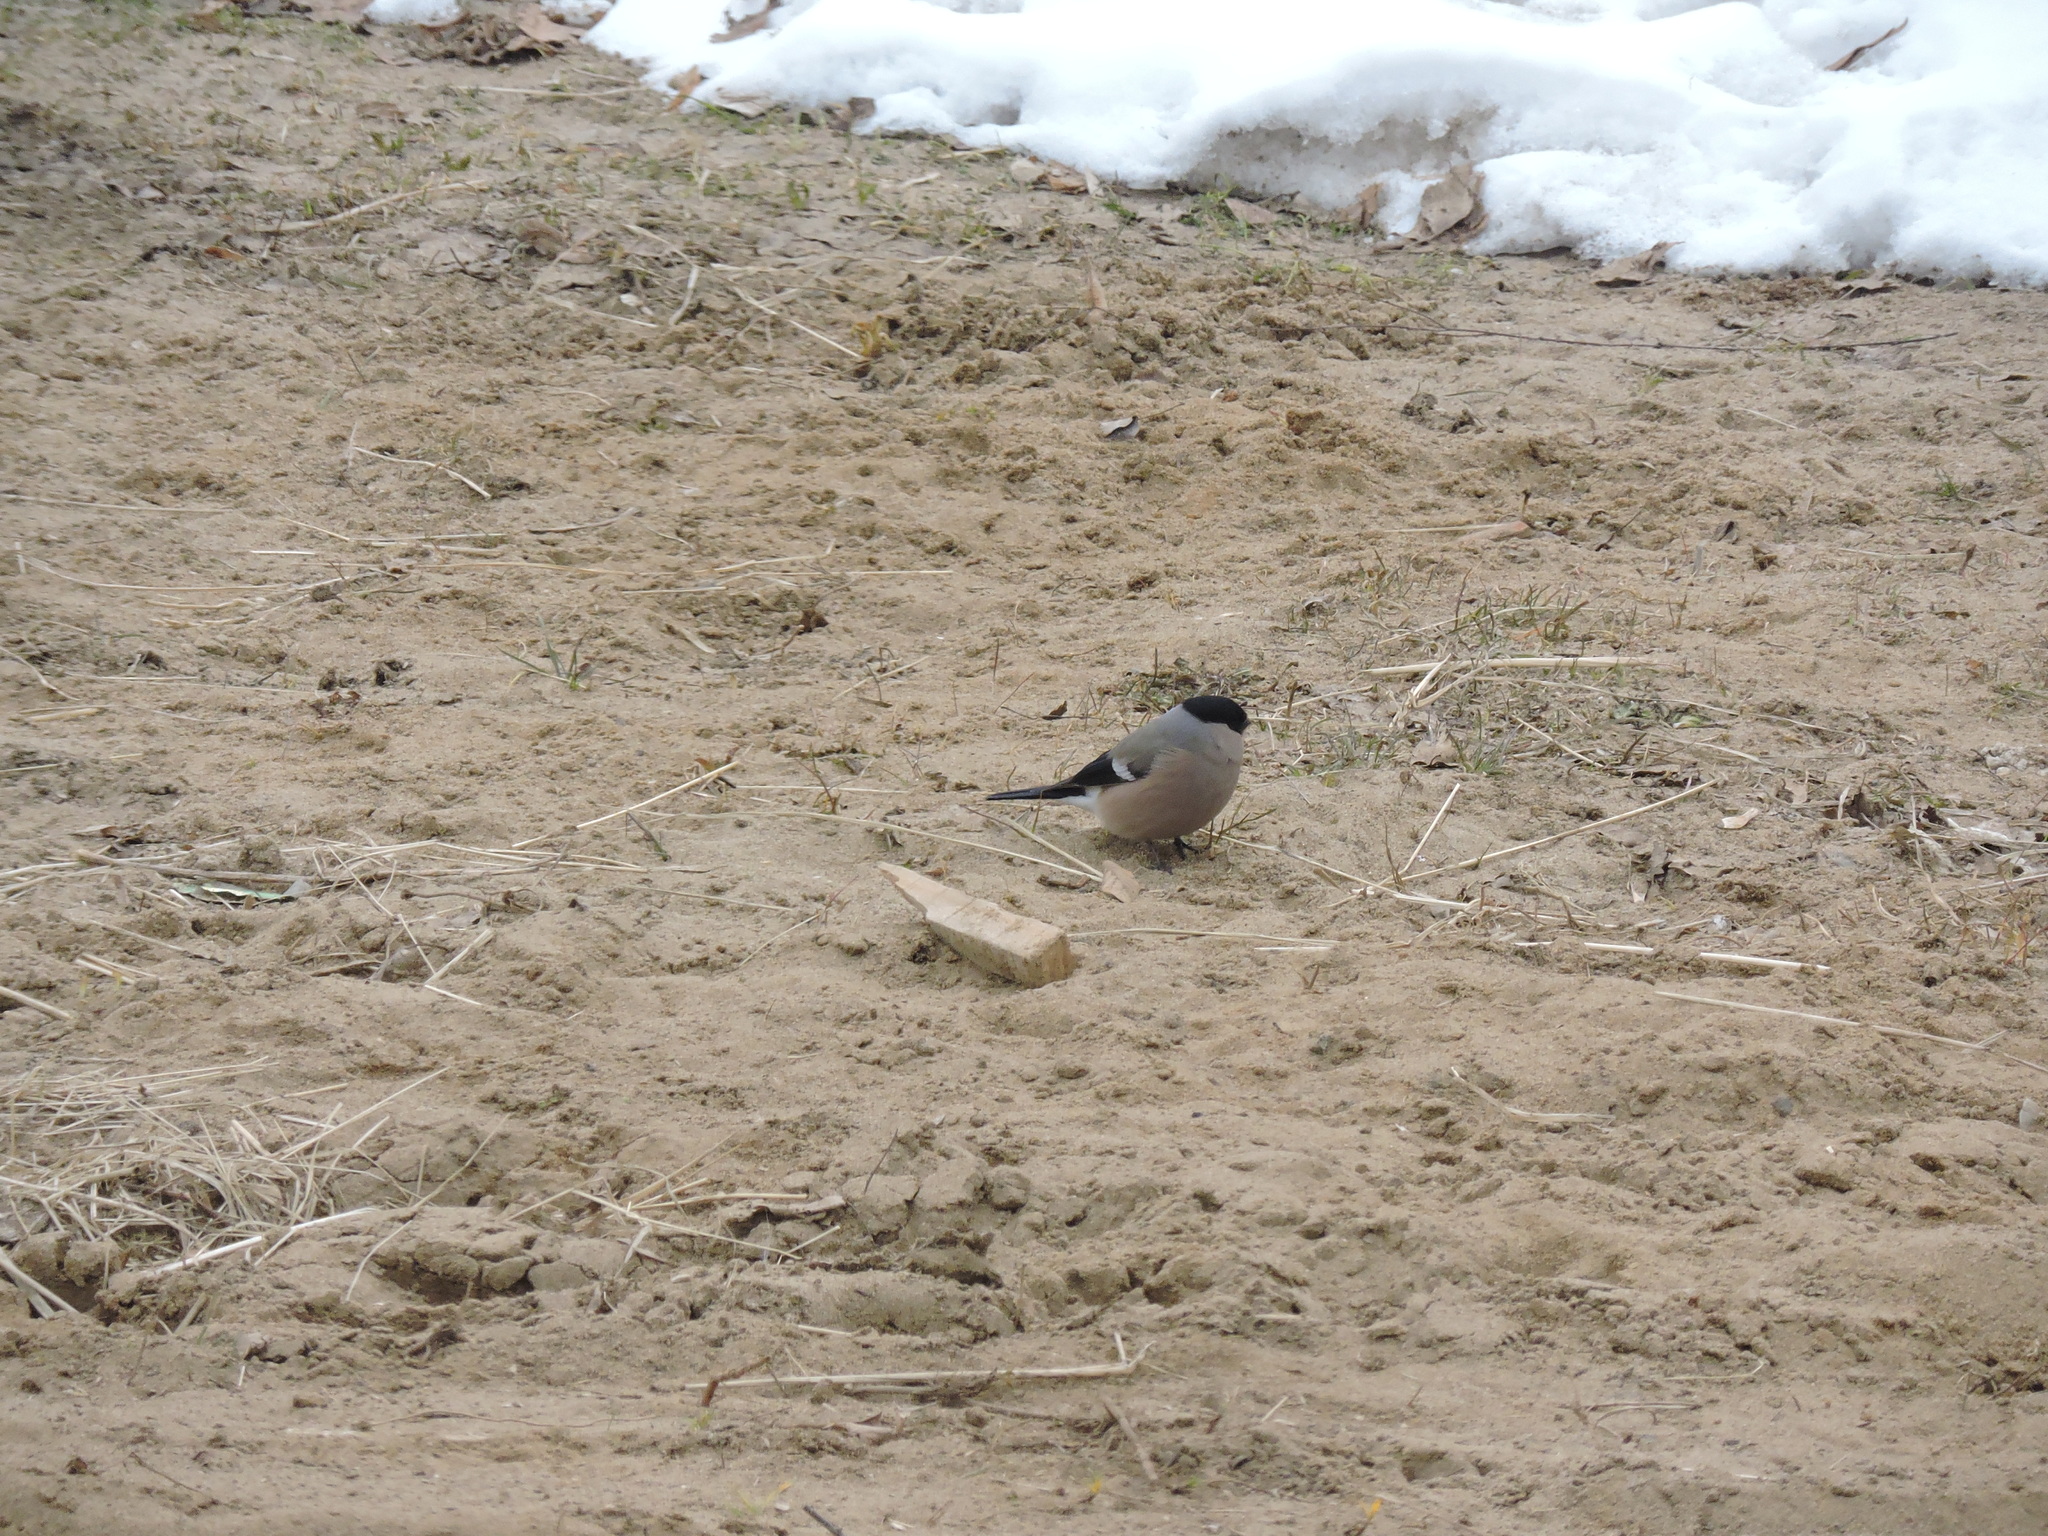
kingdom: Animalia
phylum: Chordata
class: Aves
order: Passeriformes
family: Fringillidae
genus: Pyrrhula
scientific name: Pyrrhula pyrrhula
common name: Eurasian bullfinch
